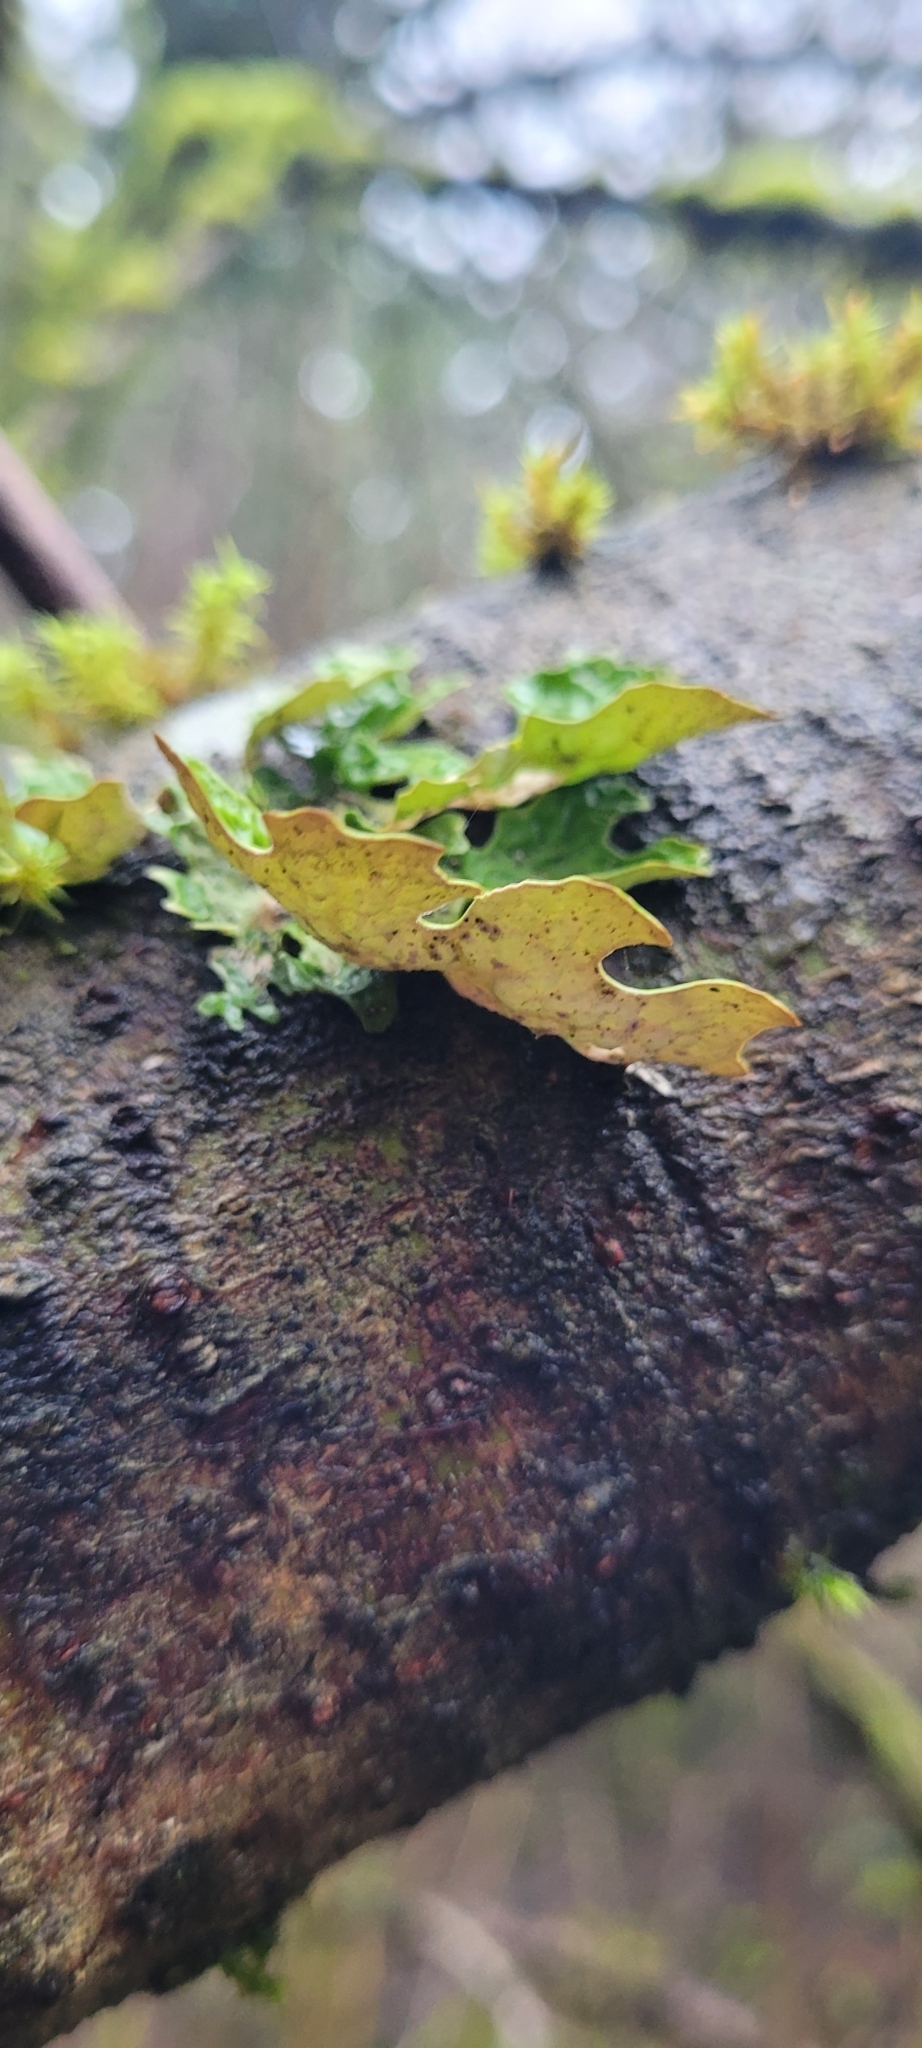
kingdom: Fungi
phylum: Ascomycota
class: Lecanoromycetes
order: Peltigerales
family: Lobariaceae
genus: Lobaria
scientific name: Lobaria pulmonaria
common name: Lungwort
